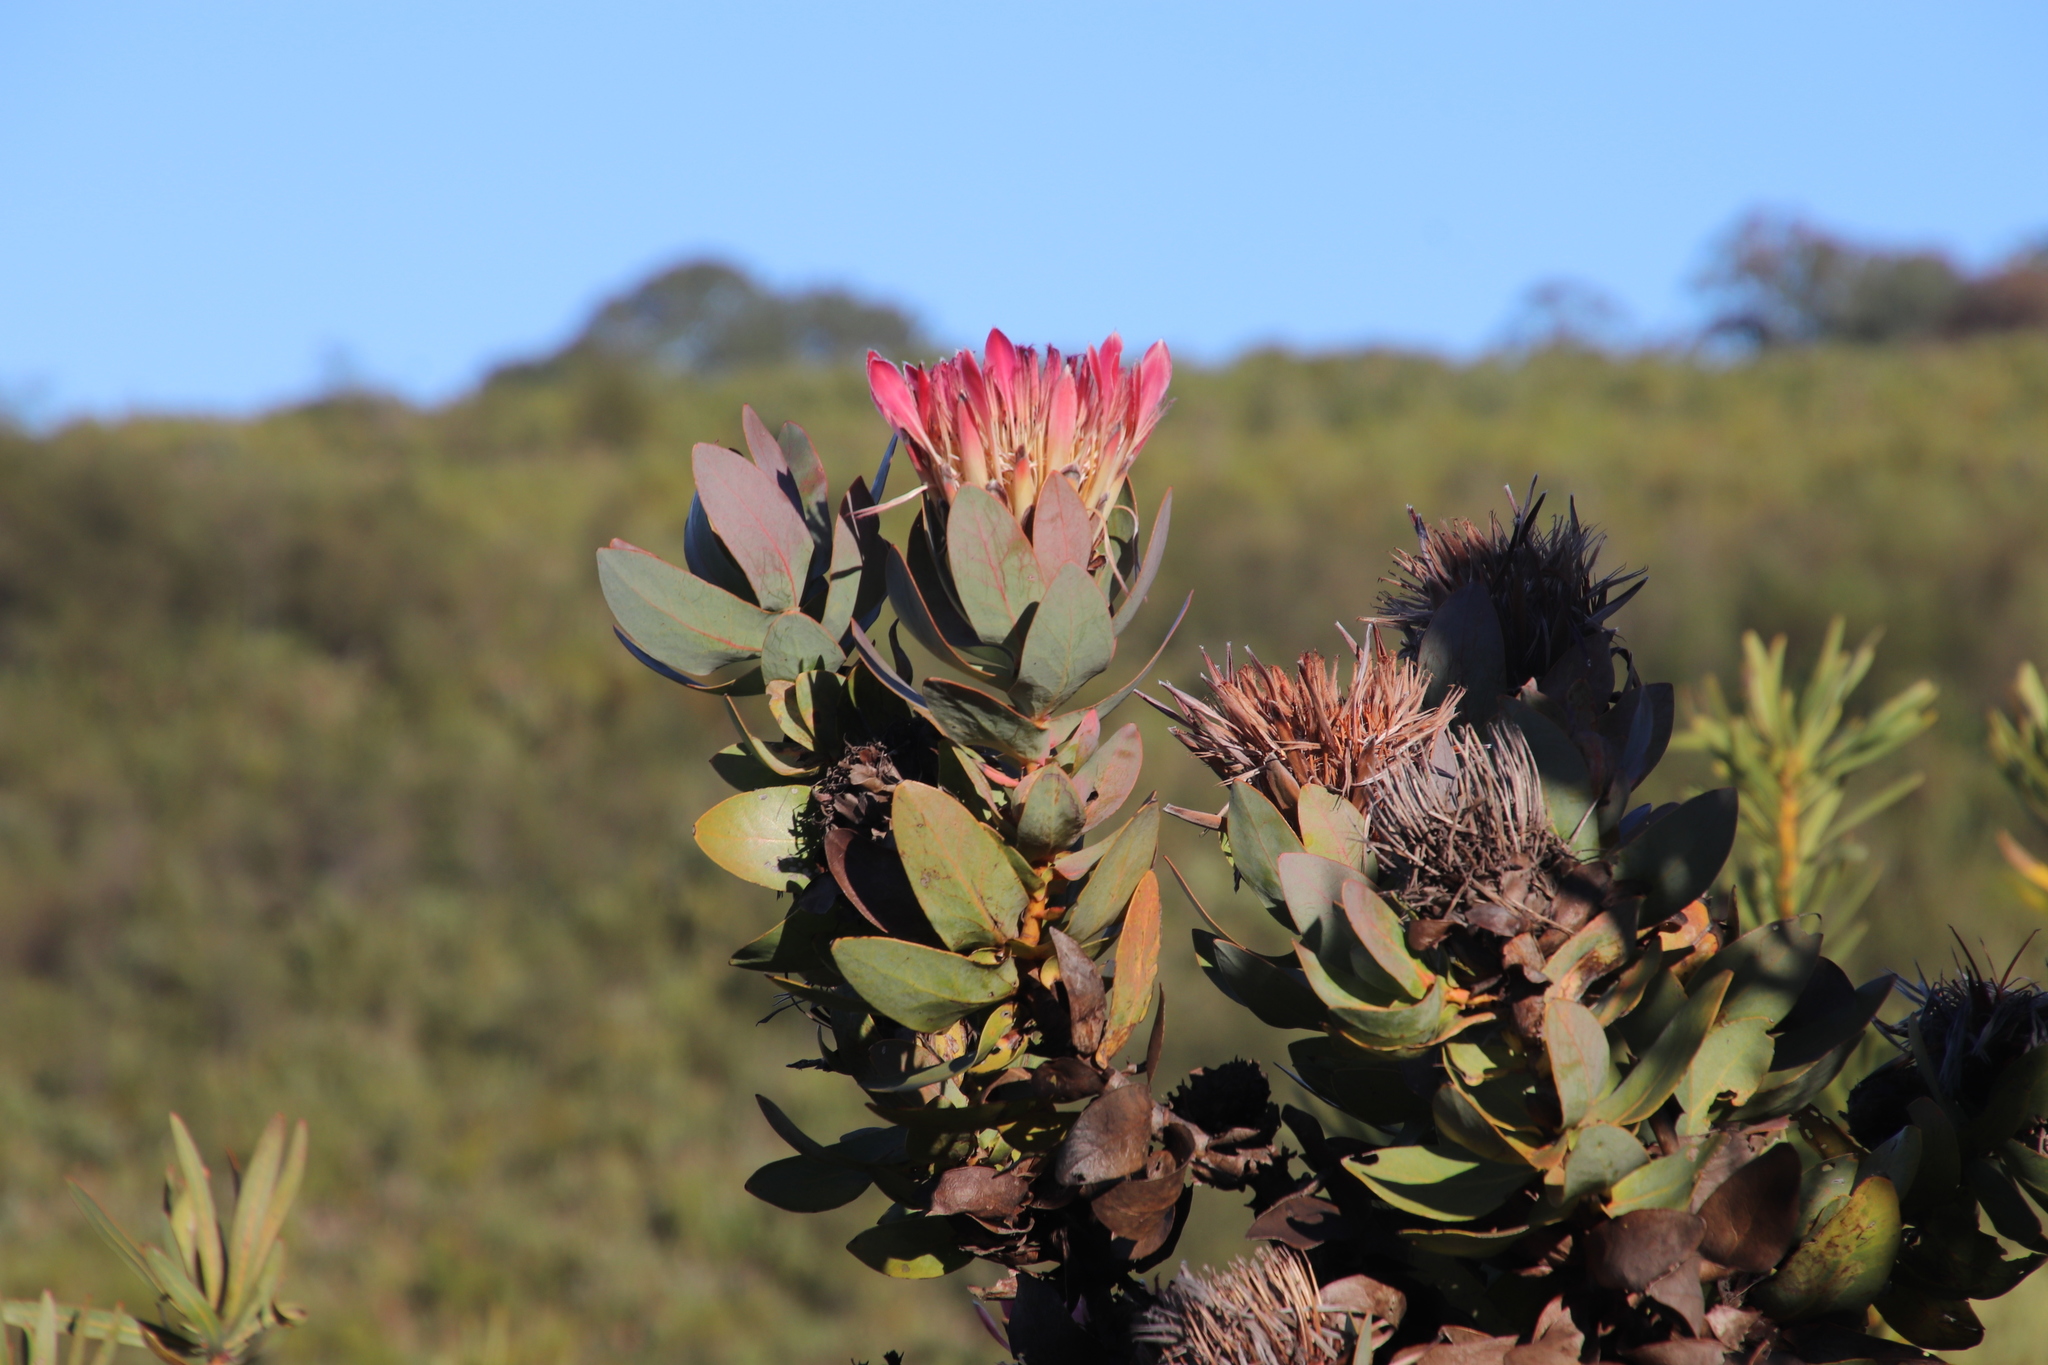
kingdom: Plantae
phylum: Tracheophyta
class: Magnoliopsida
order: Proteales
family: Proteaceae
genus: Protea
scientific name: Protea eximia
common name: Broad-leaved sugarbush
